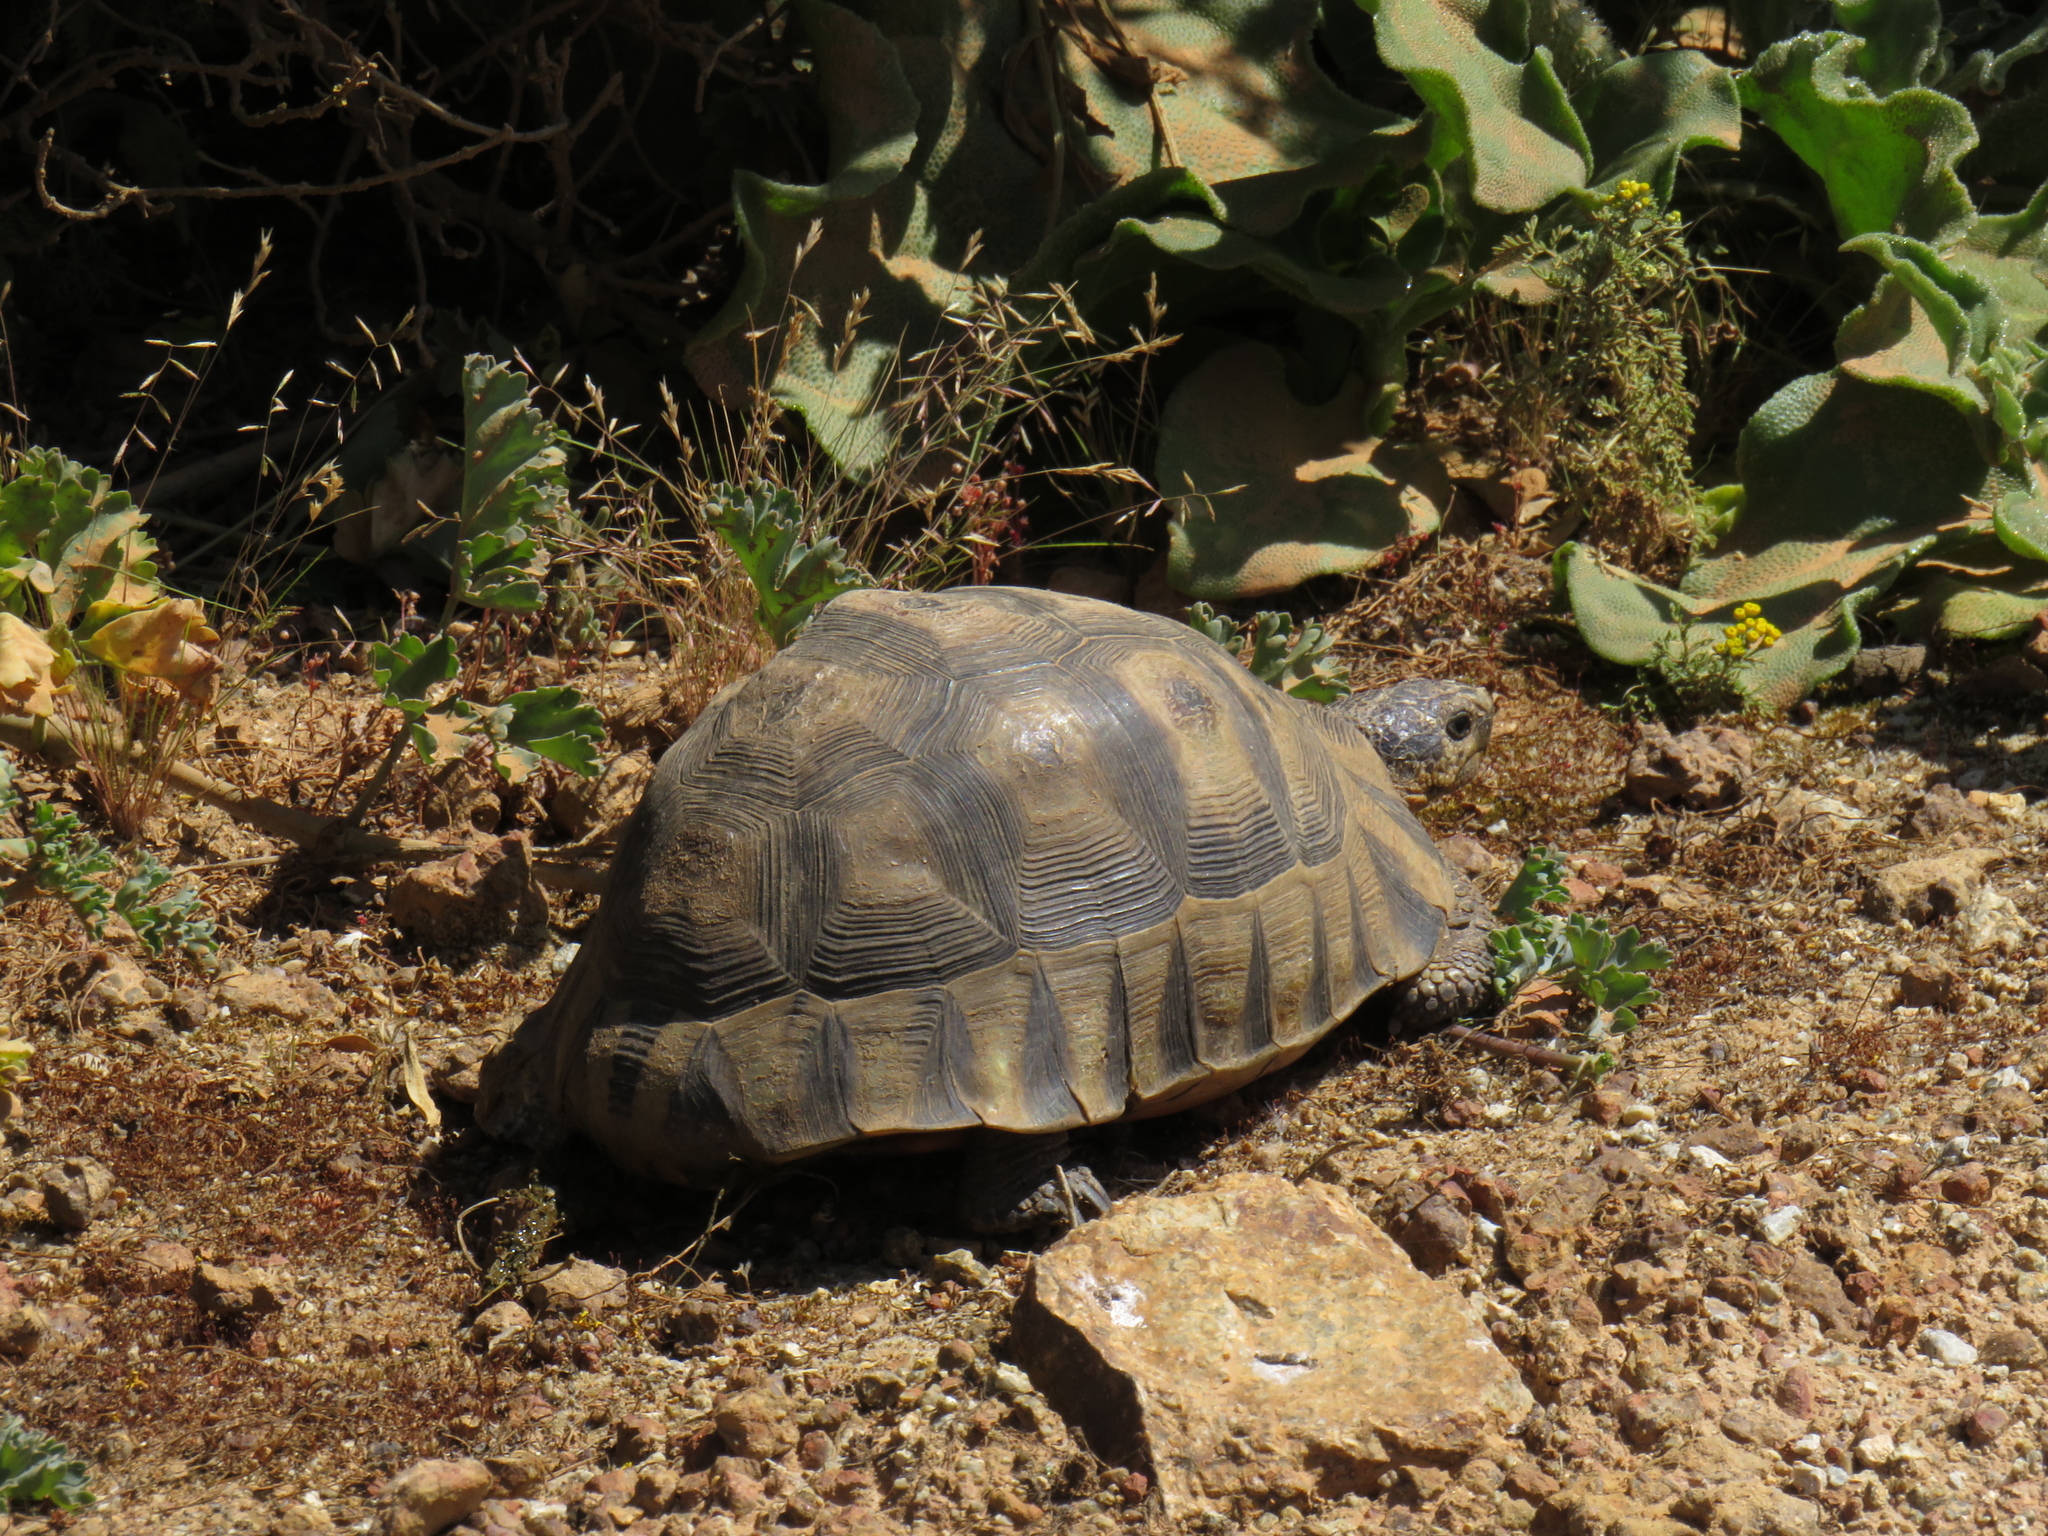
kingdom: Animalia
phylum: Chordata
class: Testudines
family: Testudinidae
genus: Chersina
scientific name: Chersina angulata
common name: South african bowsprit tortoise
